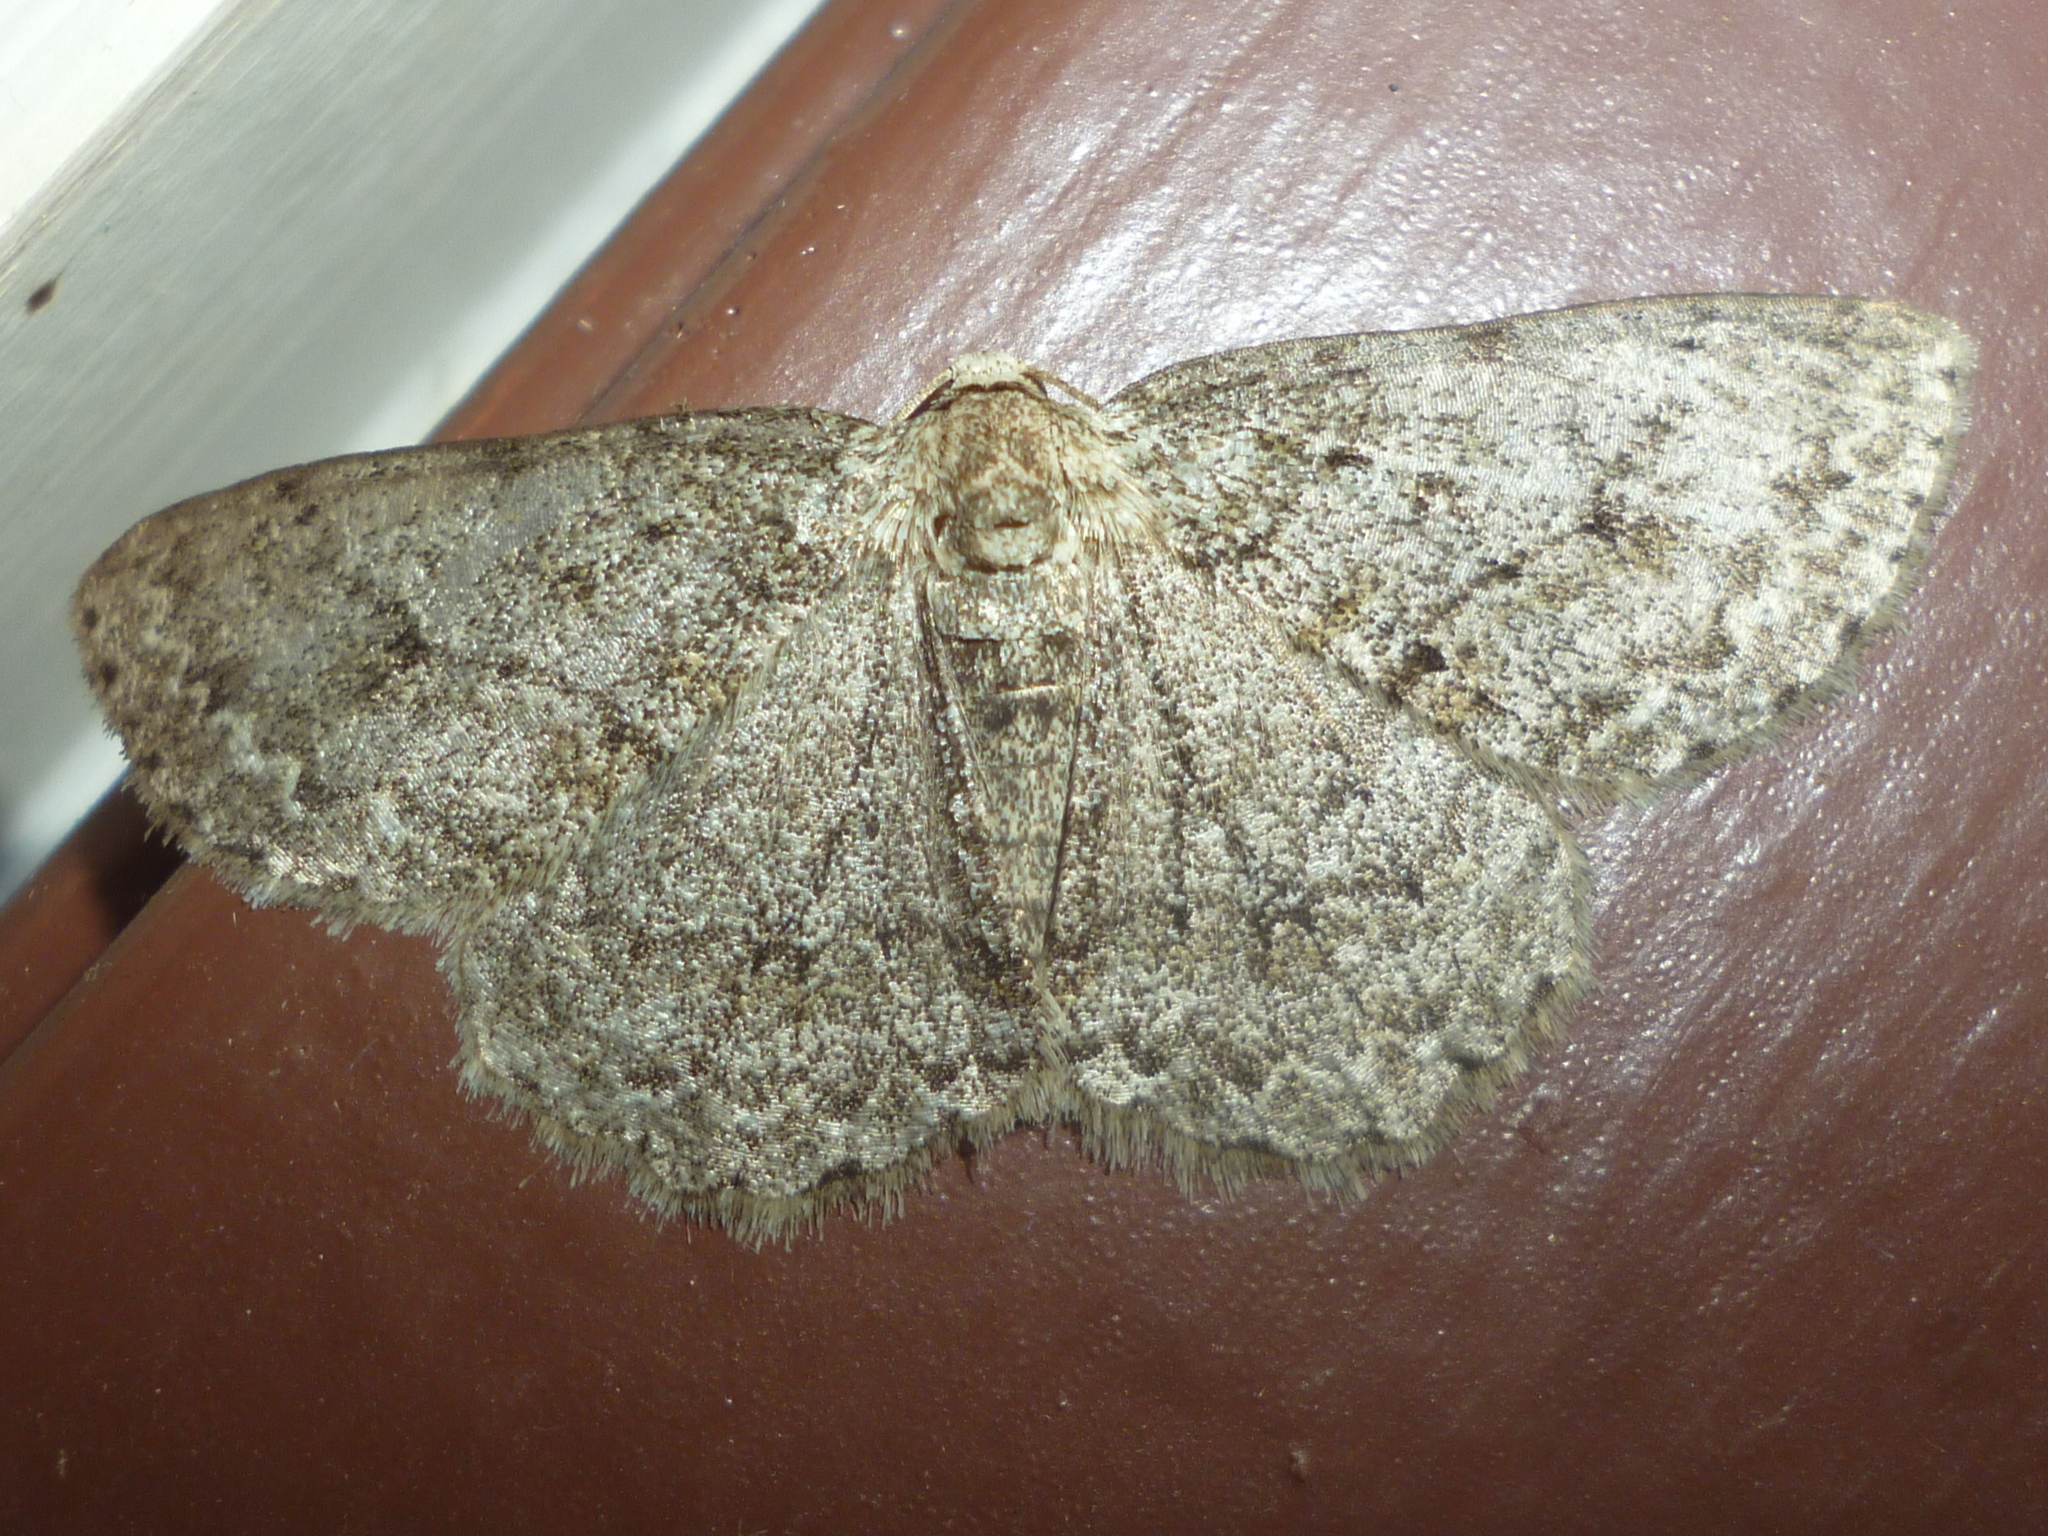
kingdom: Animalia
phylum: Arthropoda
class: Insecta
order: Lepidoptera
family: Geometridae
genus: Ectropis
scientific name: Ectropis crepuscularia
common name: Engrailed
